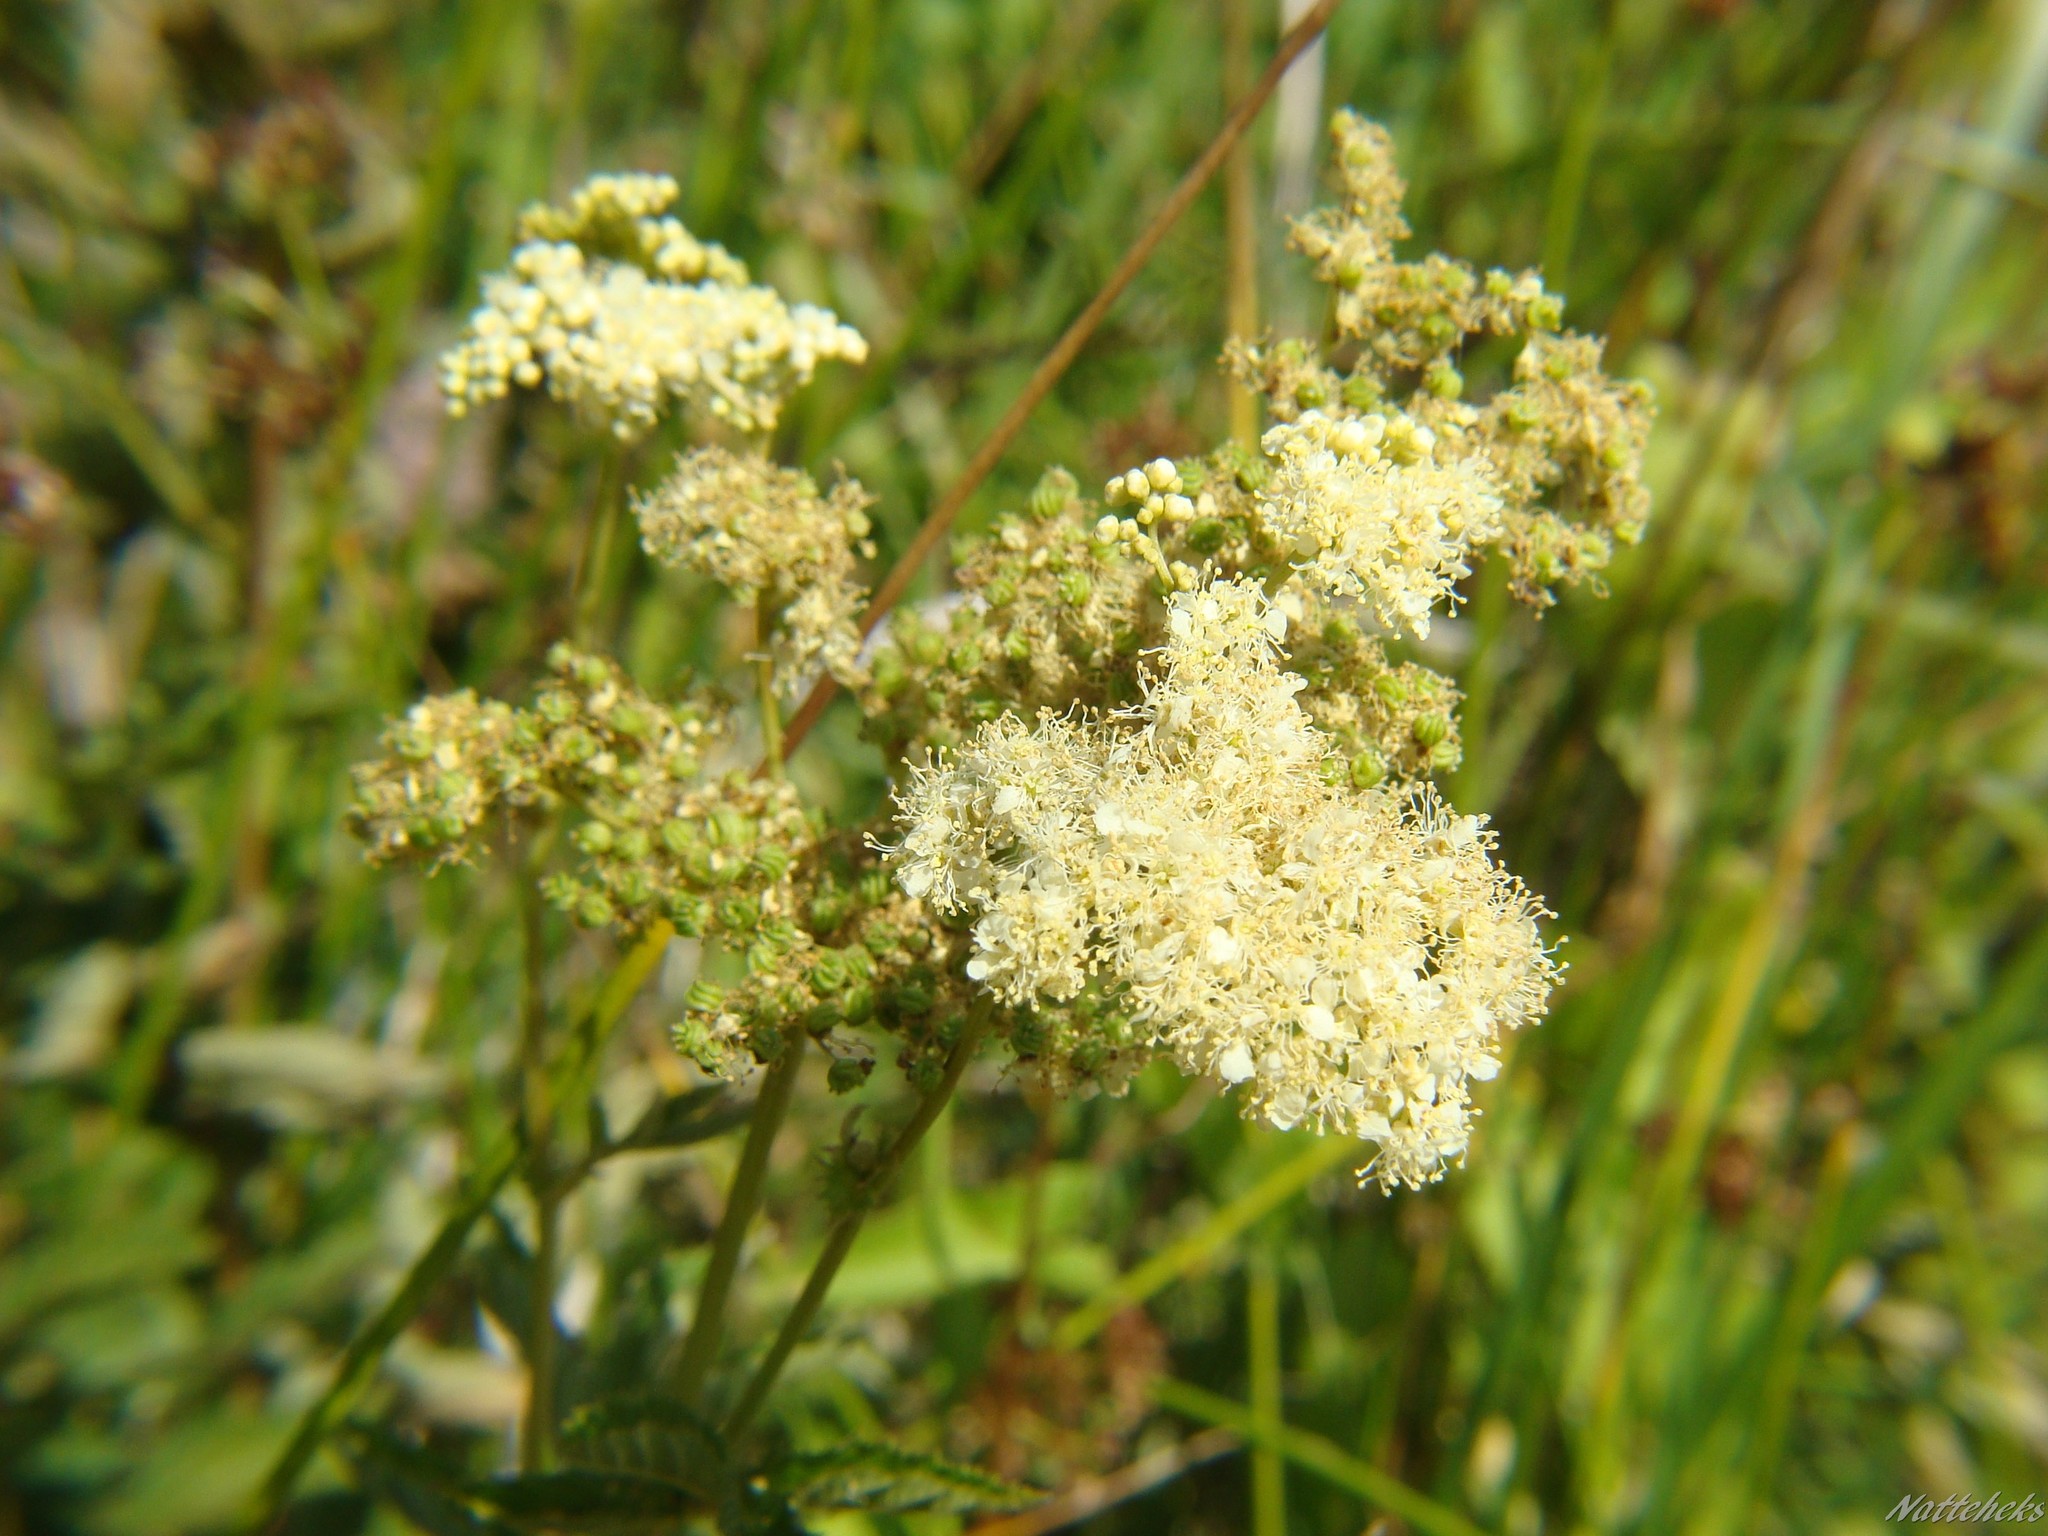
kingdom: Plantae
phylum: Tracheophyta
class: Magnoliopsida
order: Rosales
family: Rosaceae
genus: Filipendula
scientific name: Filipendula ulmaria
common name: Meadowsweet
